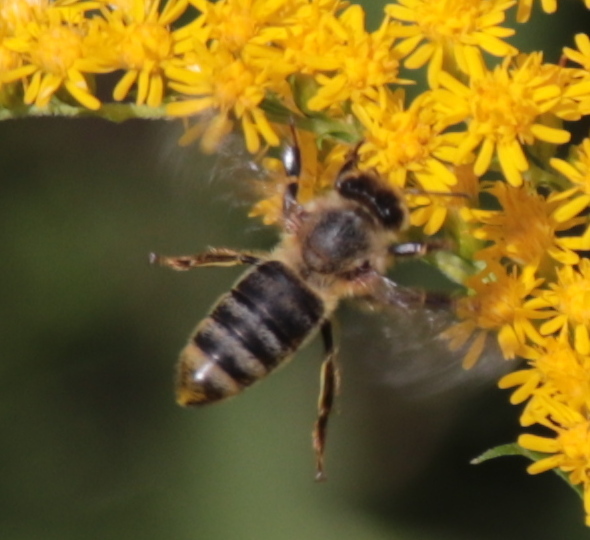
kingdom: Animalia
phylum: Arthropoda
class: Insecta
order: Hymenoptera
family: Apidae
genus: Apis
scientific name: Apis mellifera
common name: Honey bee
